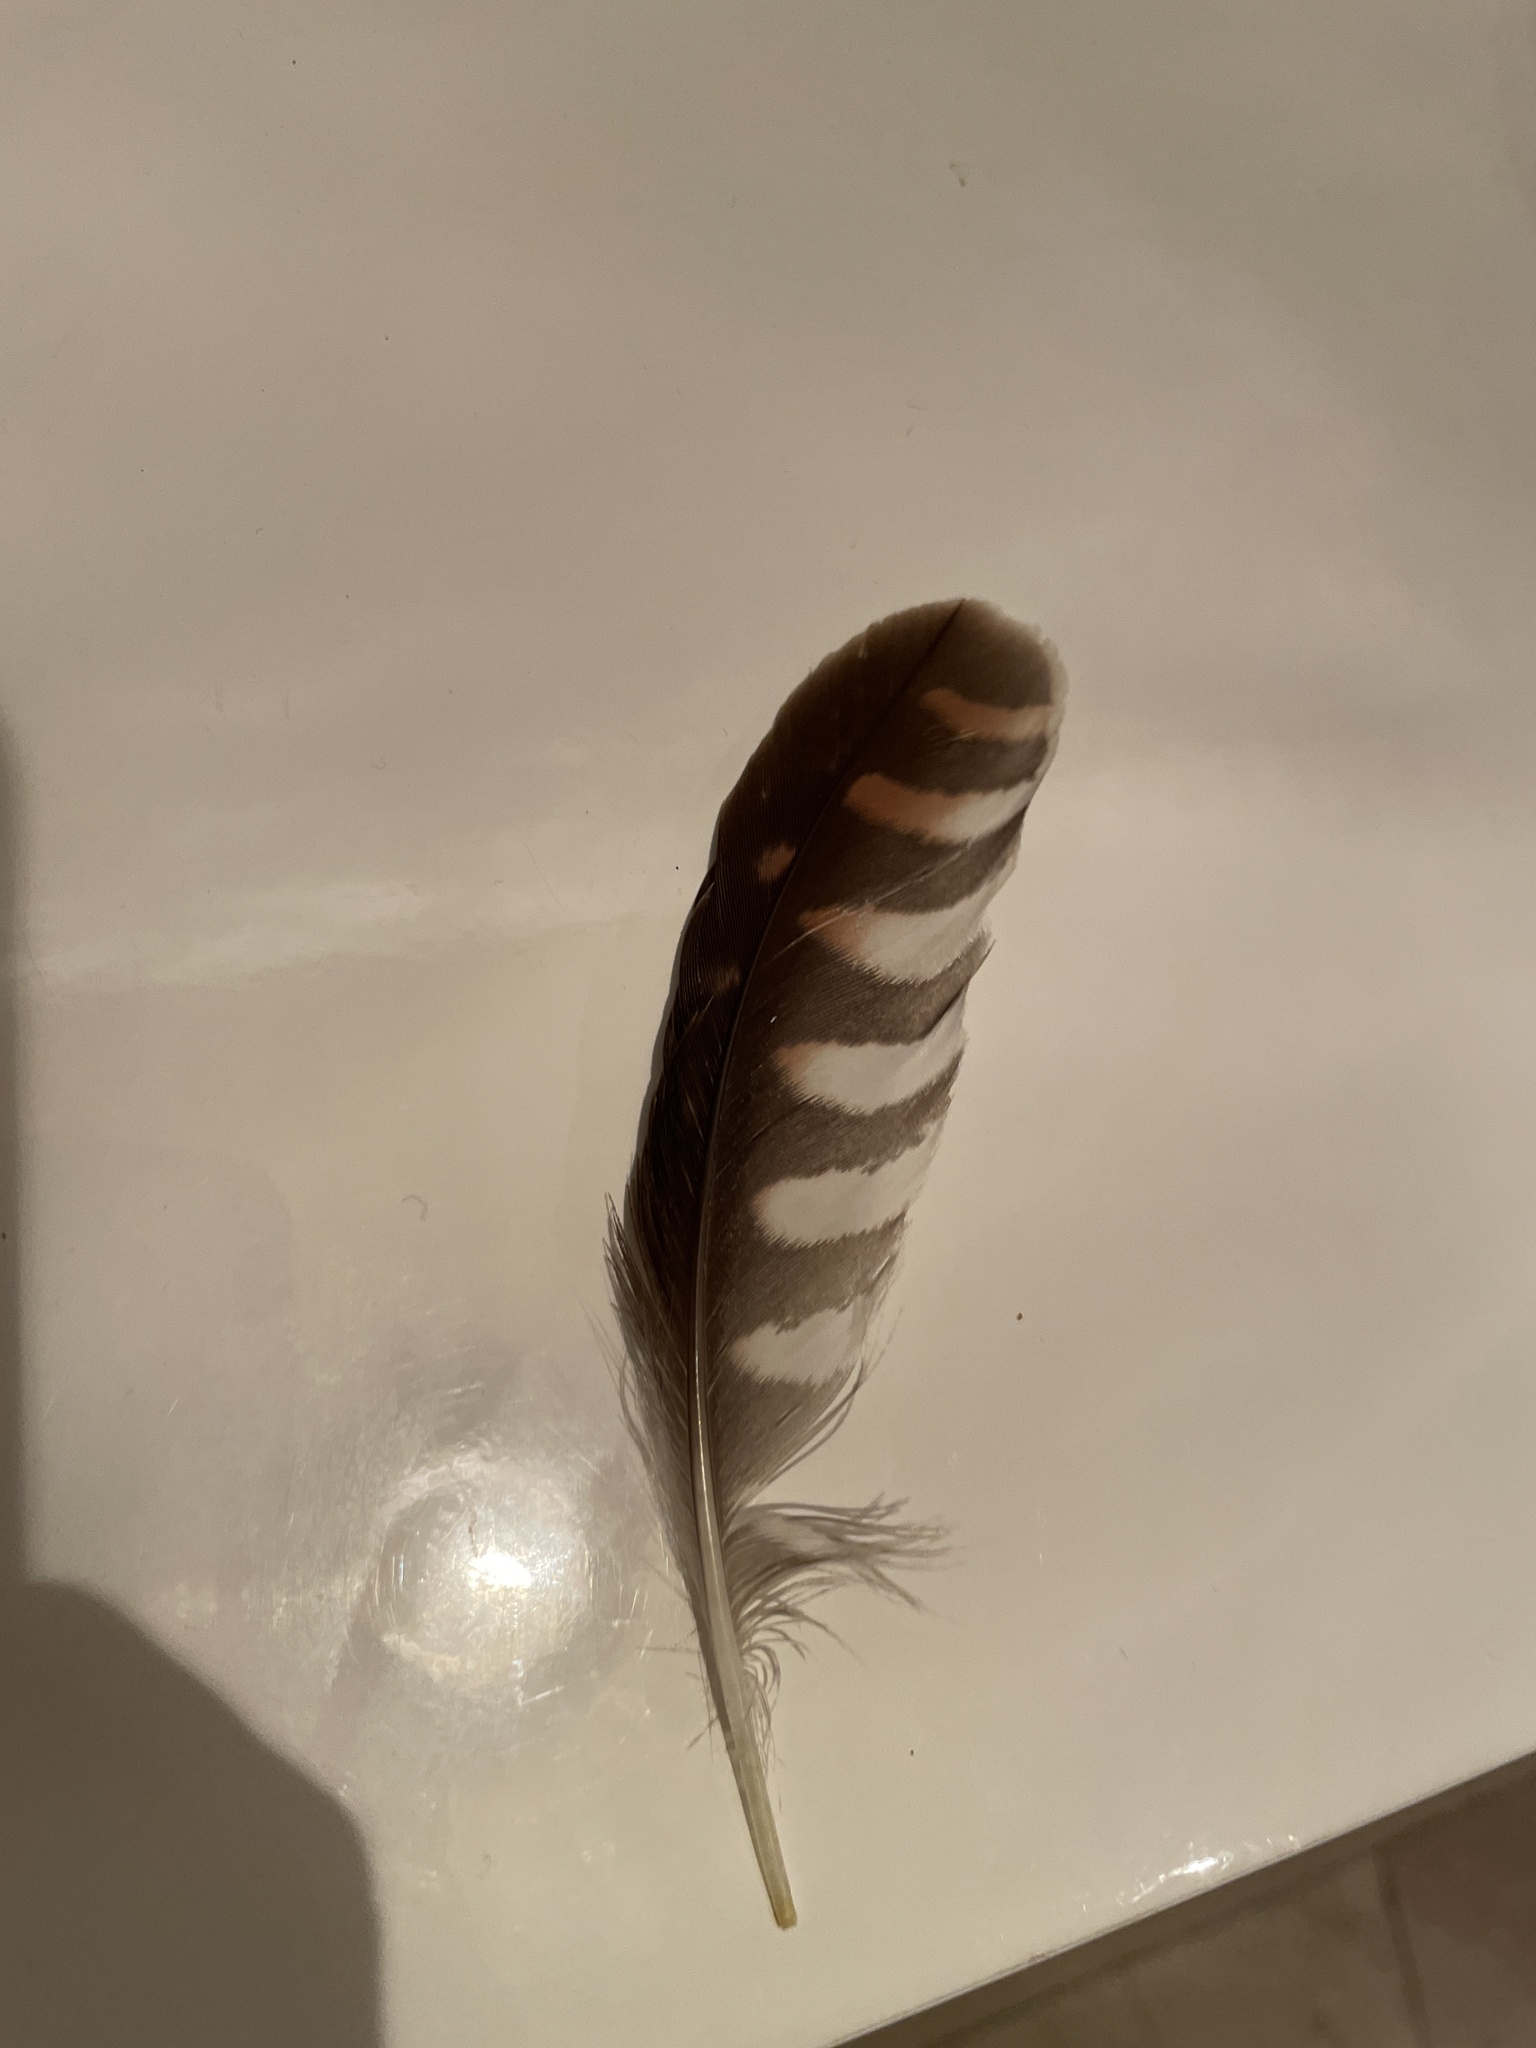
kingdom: Animalia
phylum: Chordata
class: Aves
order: Falconiformes
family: Falconidae
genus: Falco
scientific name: Falco tinnunculus
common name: Common kestrel
